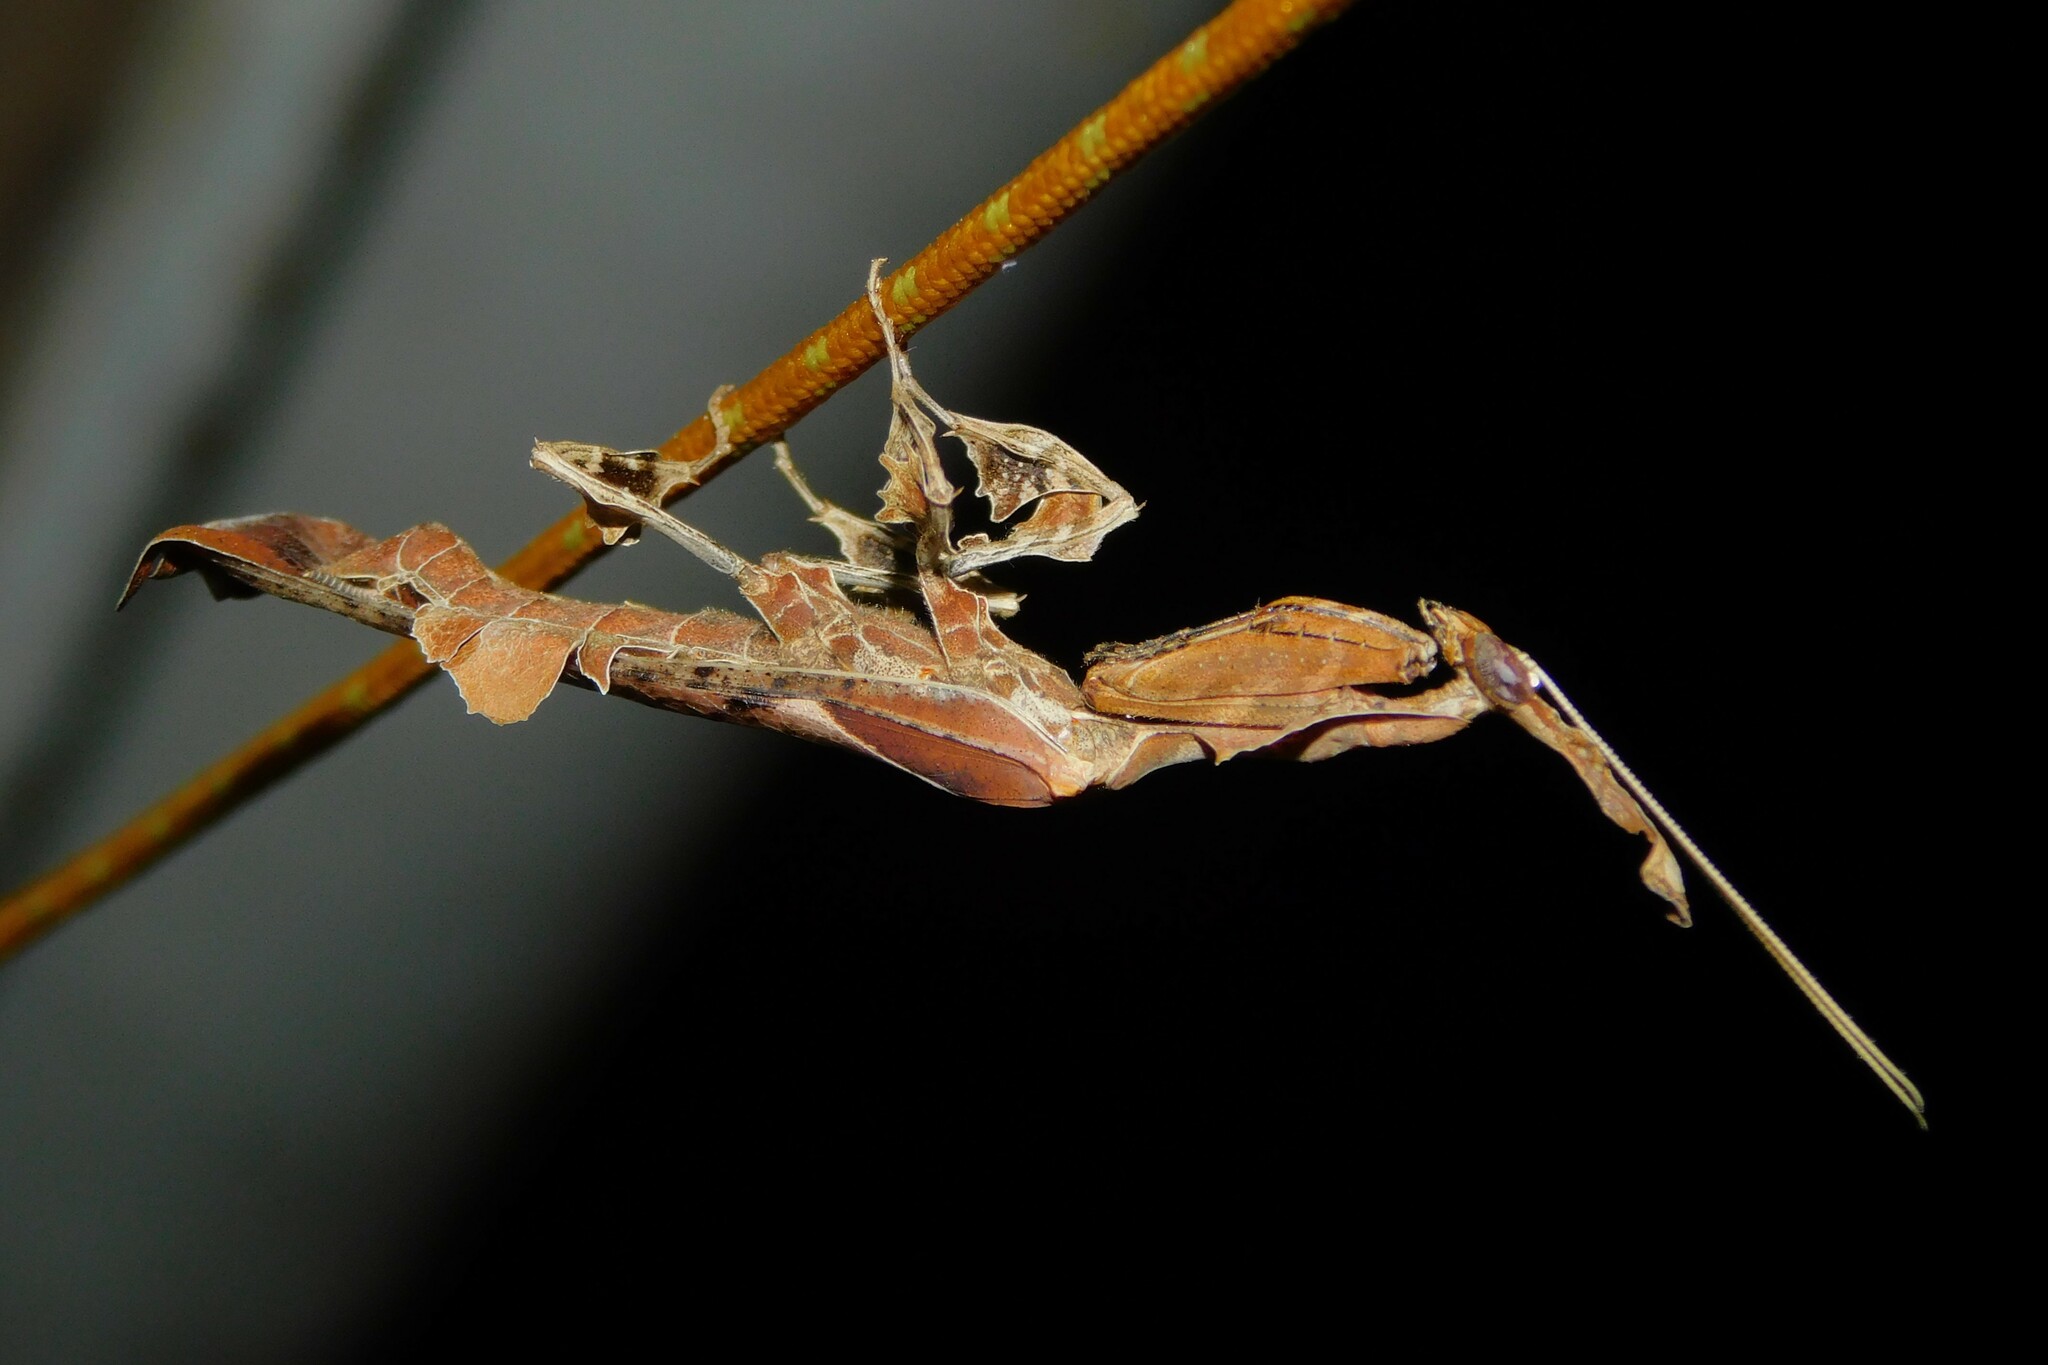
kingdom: Animalia
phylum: Arthropoda
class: Insecta
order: Mantodea
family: Hymenopodidae
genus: Phyllocrania
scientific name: Phyllocrania paradoxa
